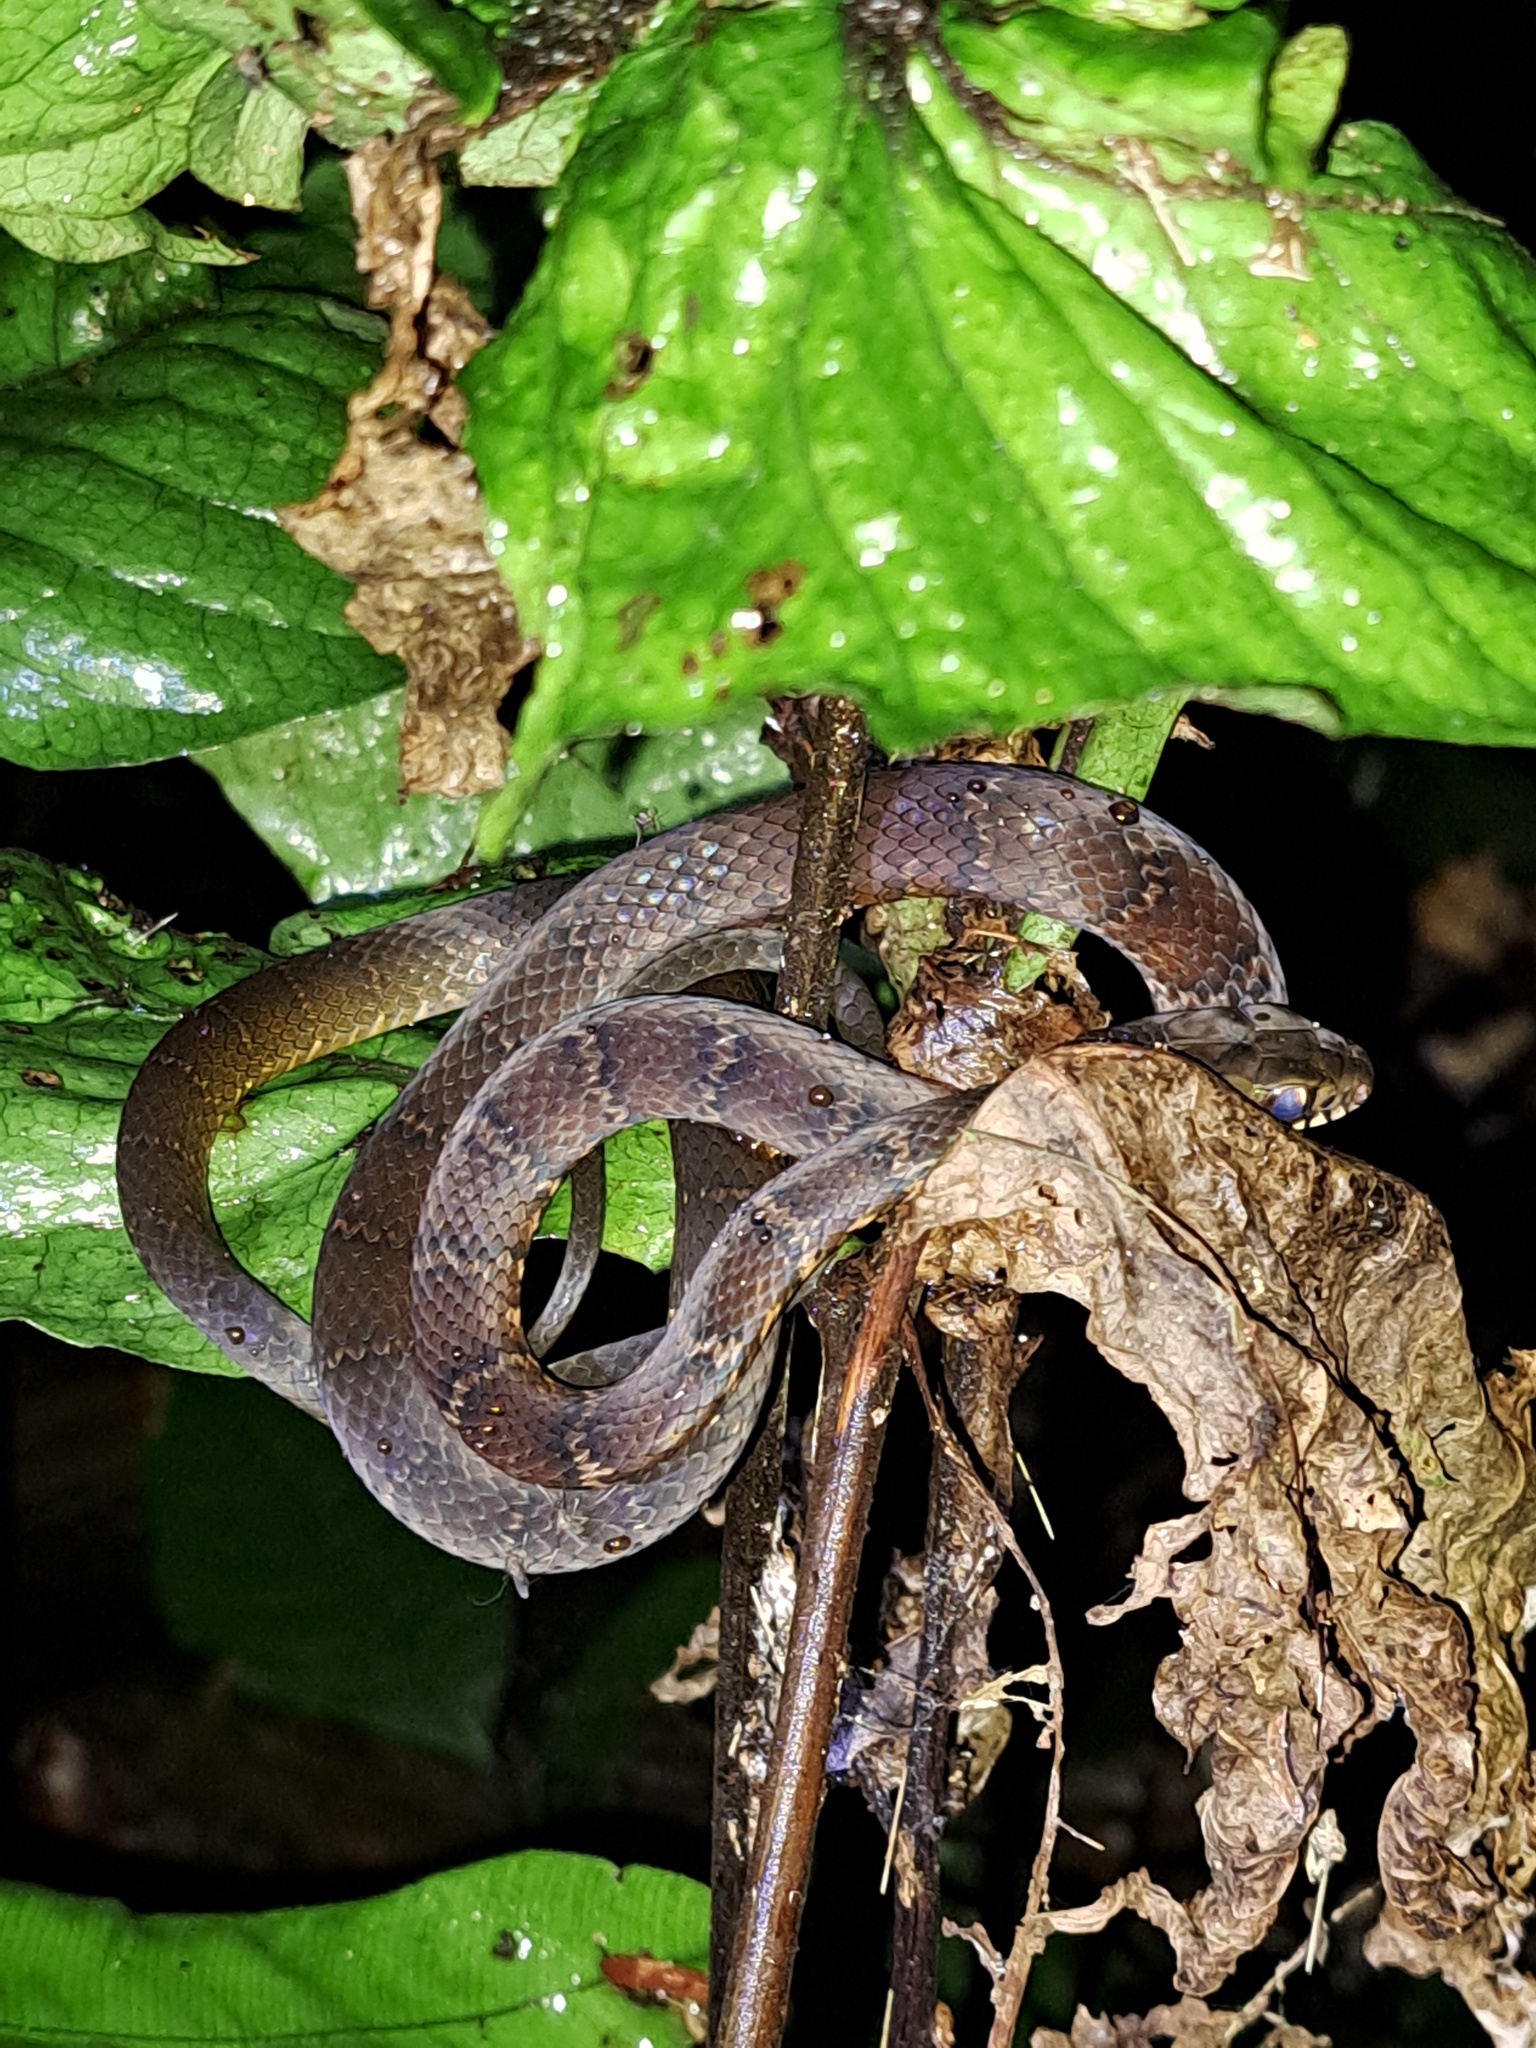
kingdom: Animalia
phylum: Chordata
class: Squamata
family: Colubridae
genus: Drymoluber
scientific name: Drymoluber dichrous
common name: Northern woodland racer
